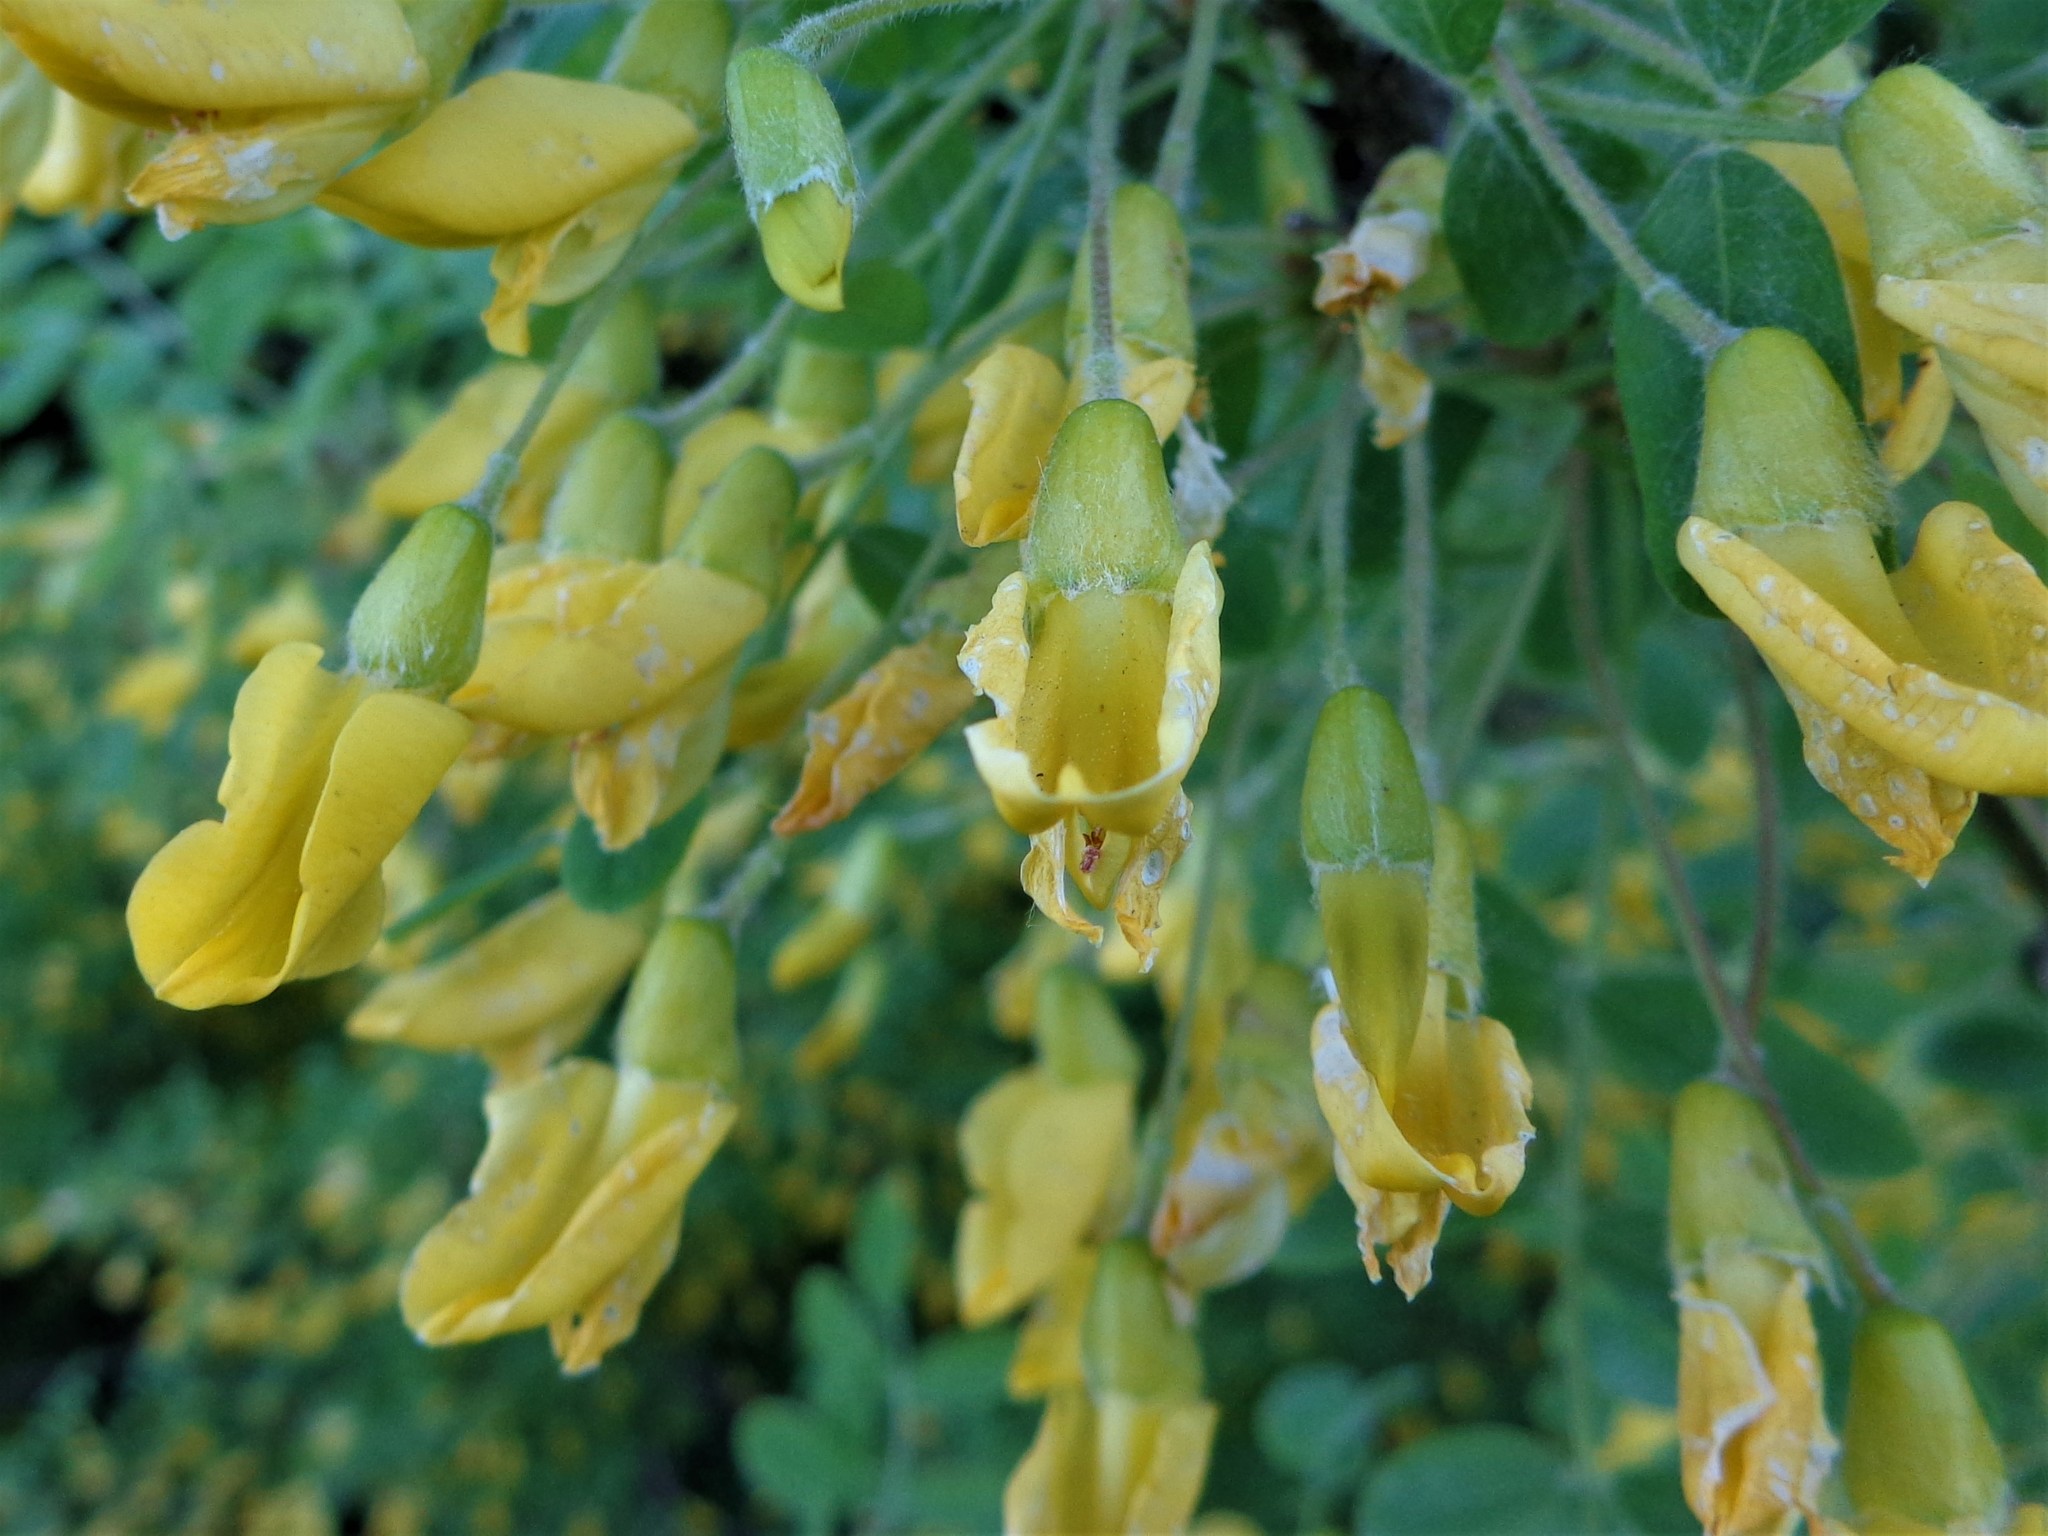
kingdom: Plantae
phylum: Tracheophyta
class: Magnoliopsida
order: Fabales
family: Fabaceae
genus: Caragana
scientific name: Caragana arborescens
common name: Siberian peashrub
